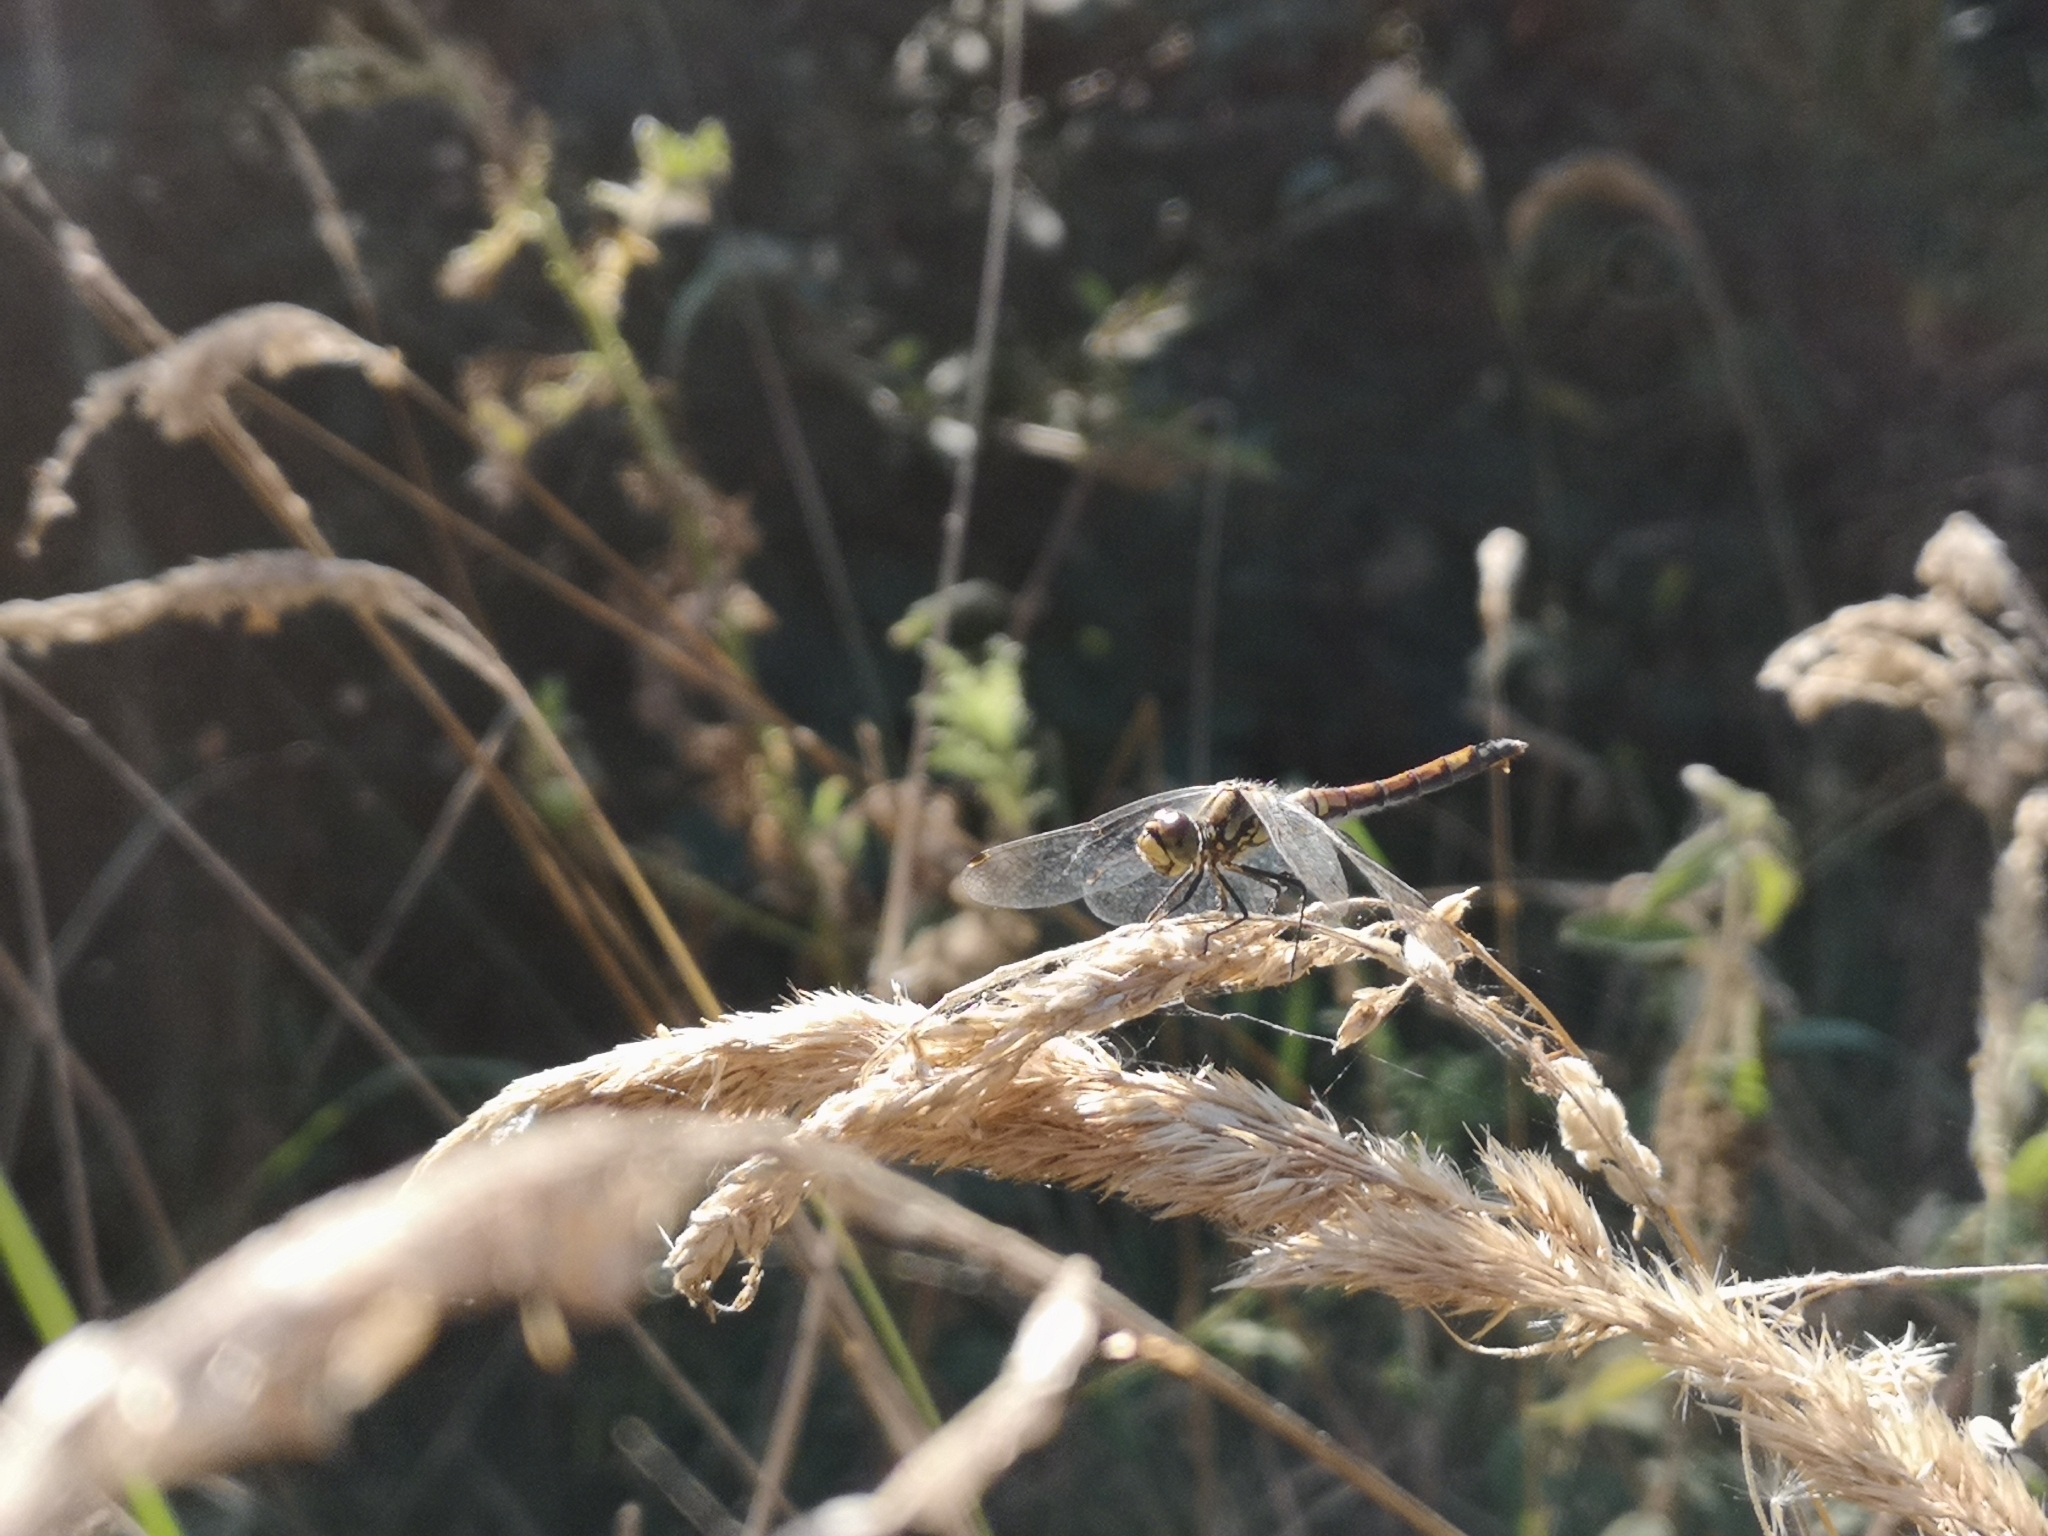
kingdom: Animalia
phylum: Arthropoda
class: Insecta
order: Odonata
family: Libellulidae
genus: Sympetrum
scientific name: Sympetrum danae
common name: Black darter
